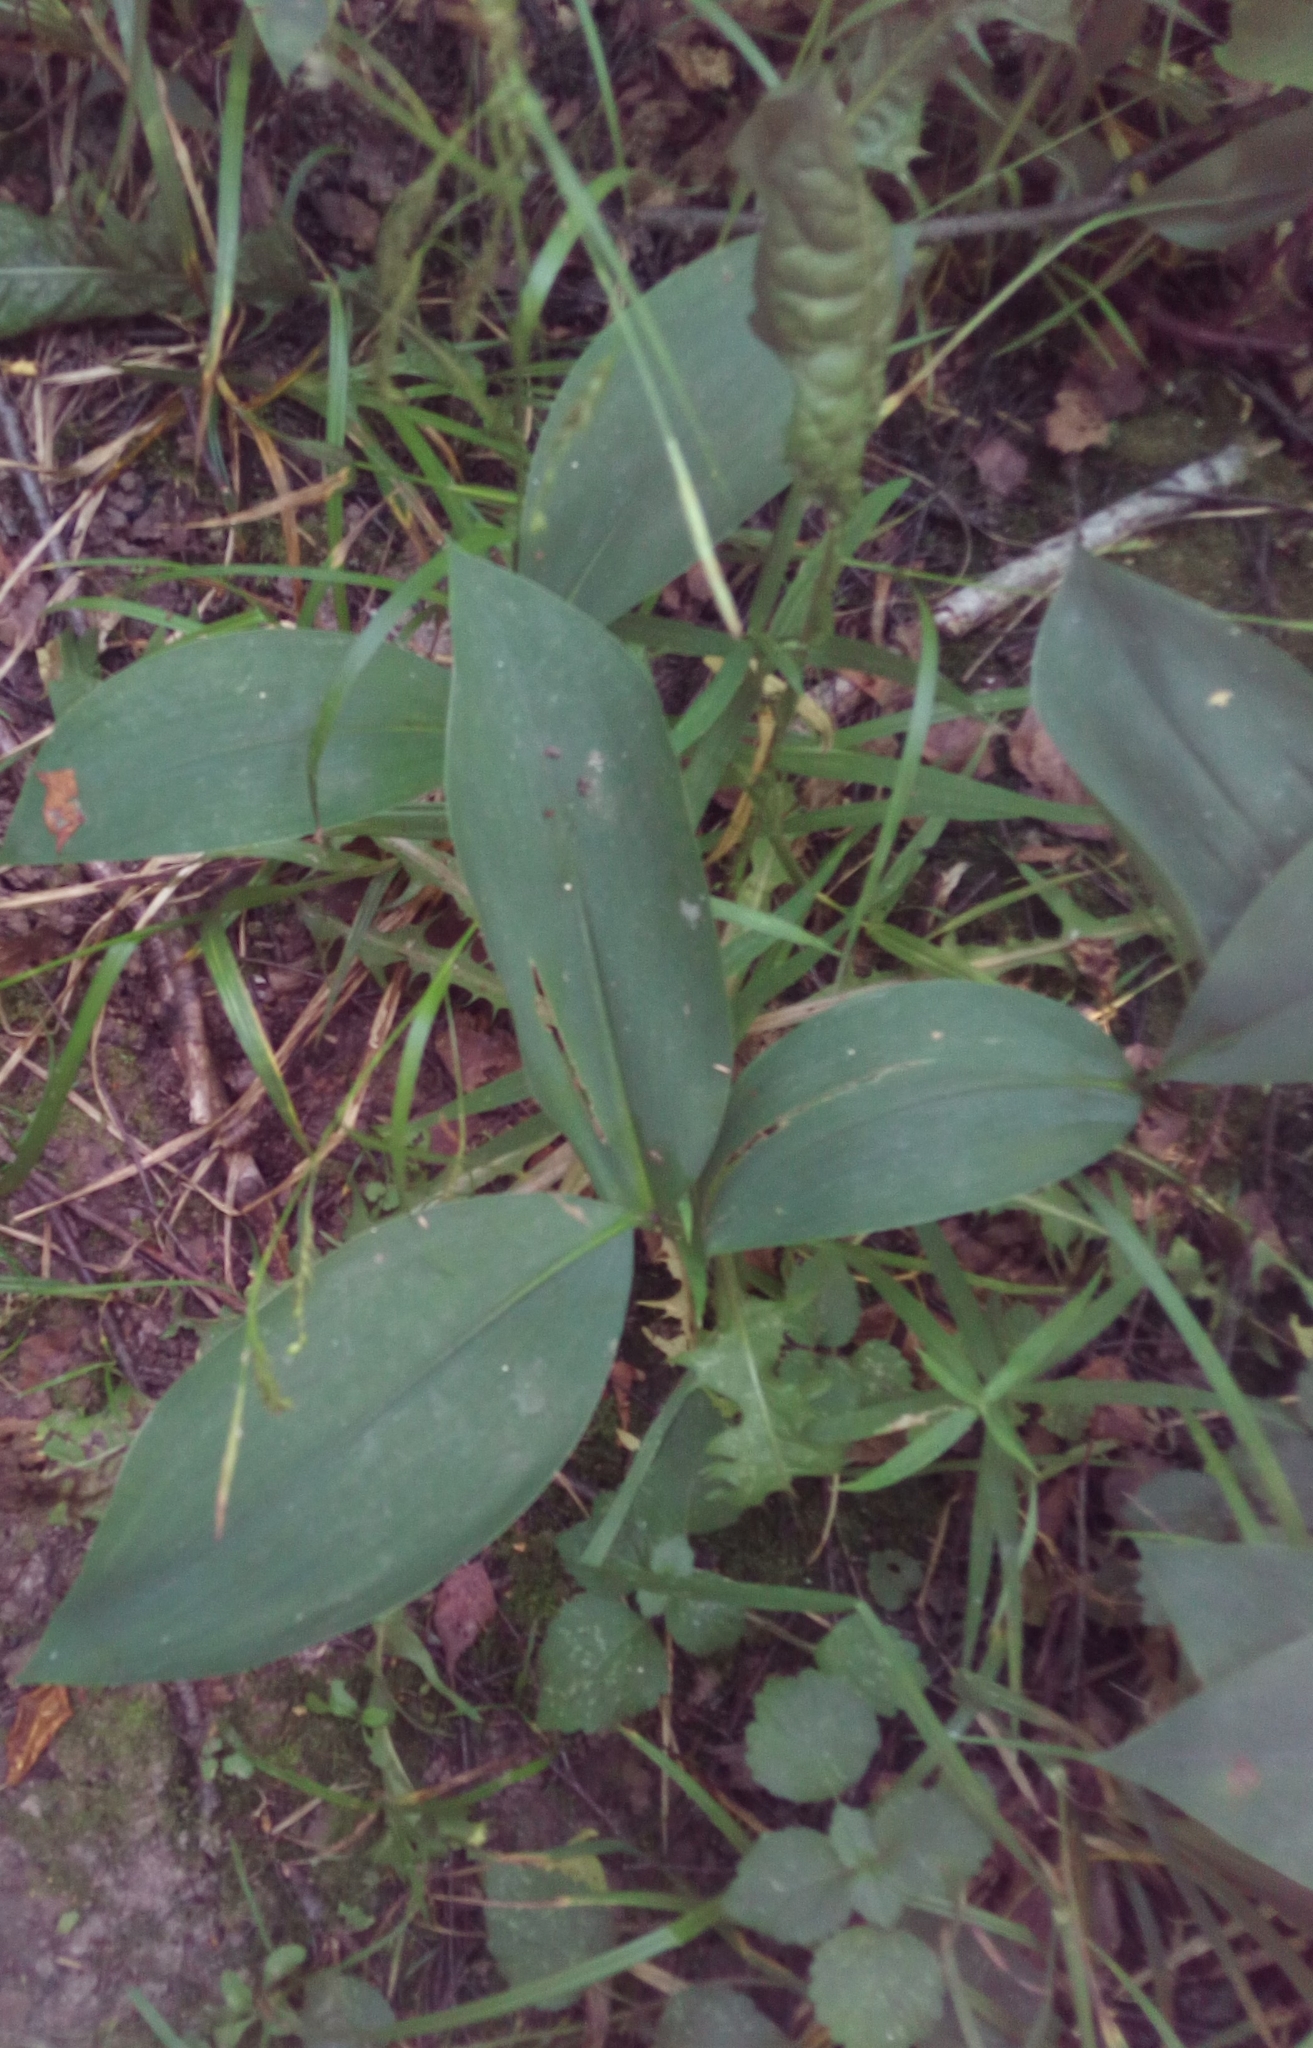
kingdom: Plantae
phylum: Tracheophyta
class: Liliopsida
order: Asparagales
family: Asparagaceae
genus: Convallaria
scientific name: Convallaria majalis
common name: Lily-of-the-valley
